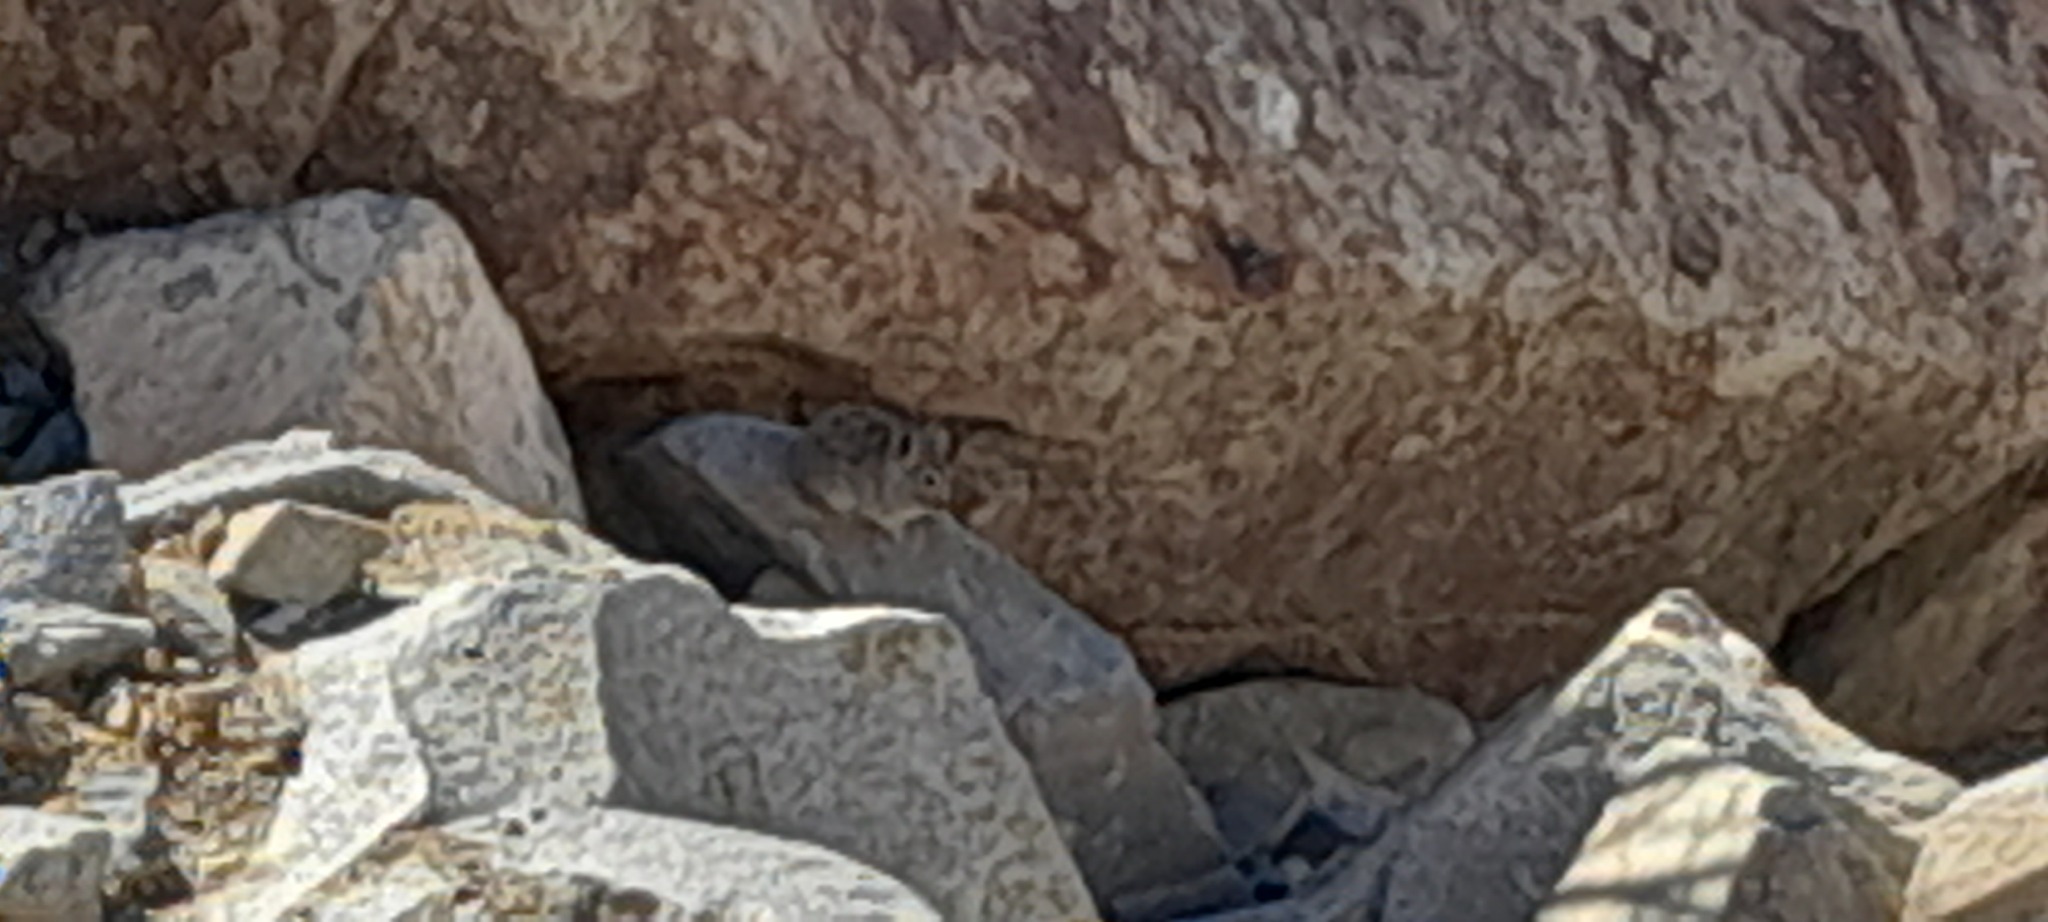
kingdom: Animalia
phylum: Chordata
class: Mammalia
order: Lagomorpha
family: Ochotonidae
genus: Ochotona
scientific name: Ochotona macrotis
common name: Large-eared pika
